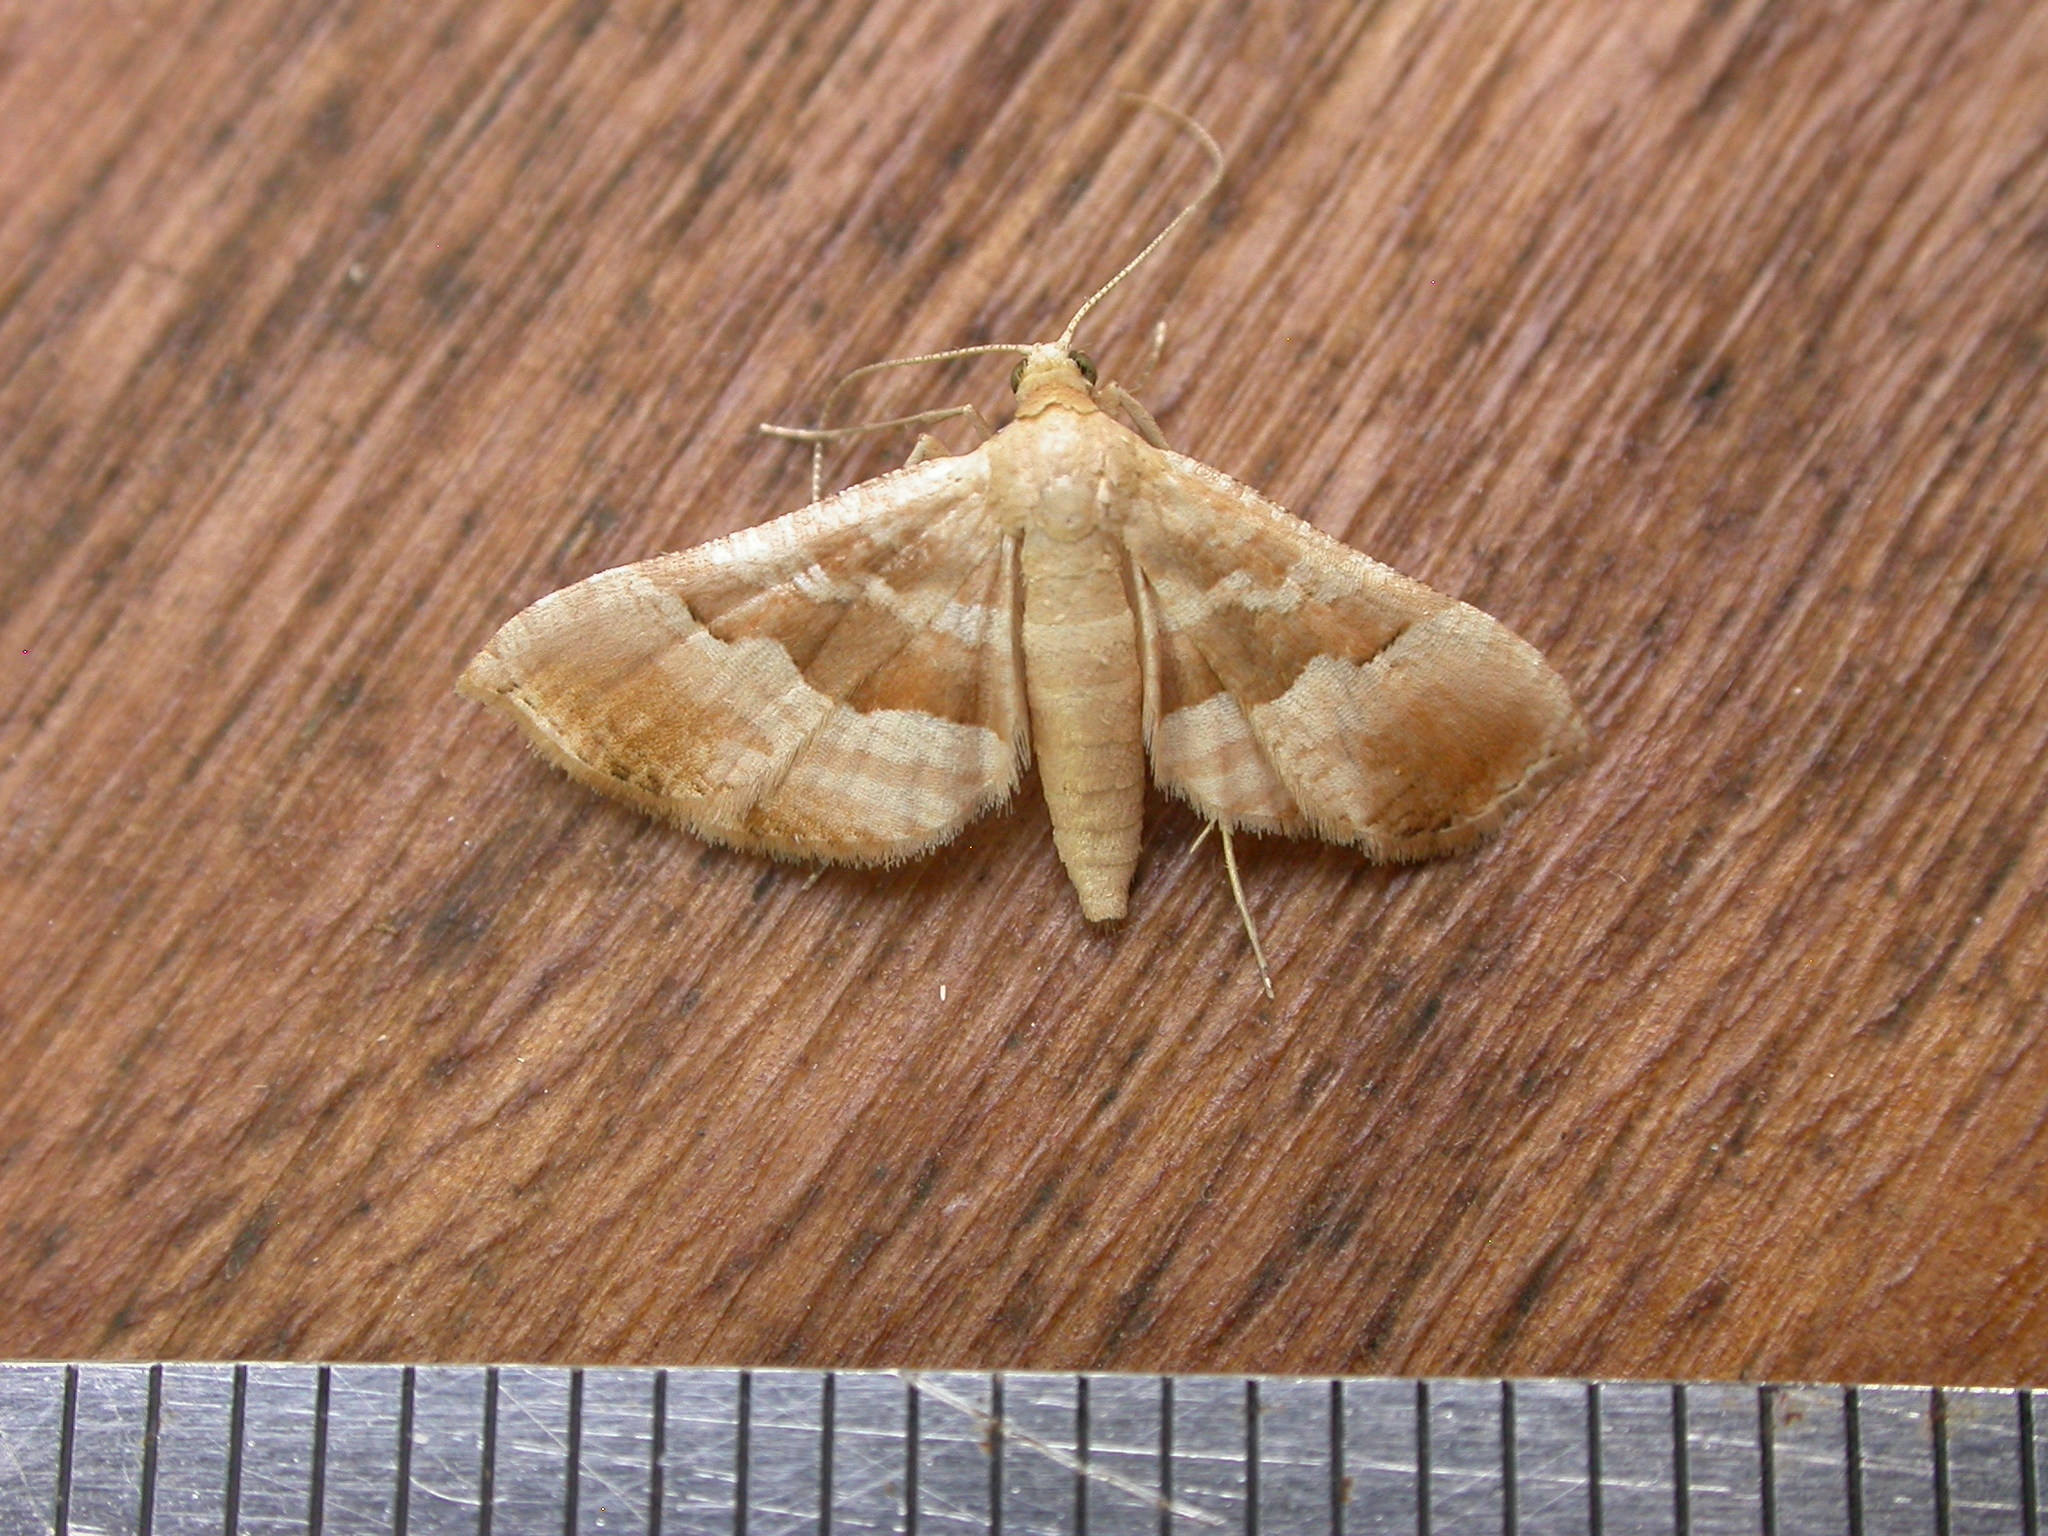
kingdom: Animalia
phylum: Arthropoda
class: Insecta
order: Lepidoptera
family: Thyrididae
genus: Addaea
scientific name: Addaea pusilla
